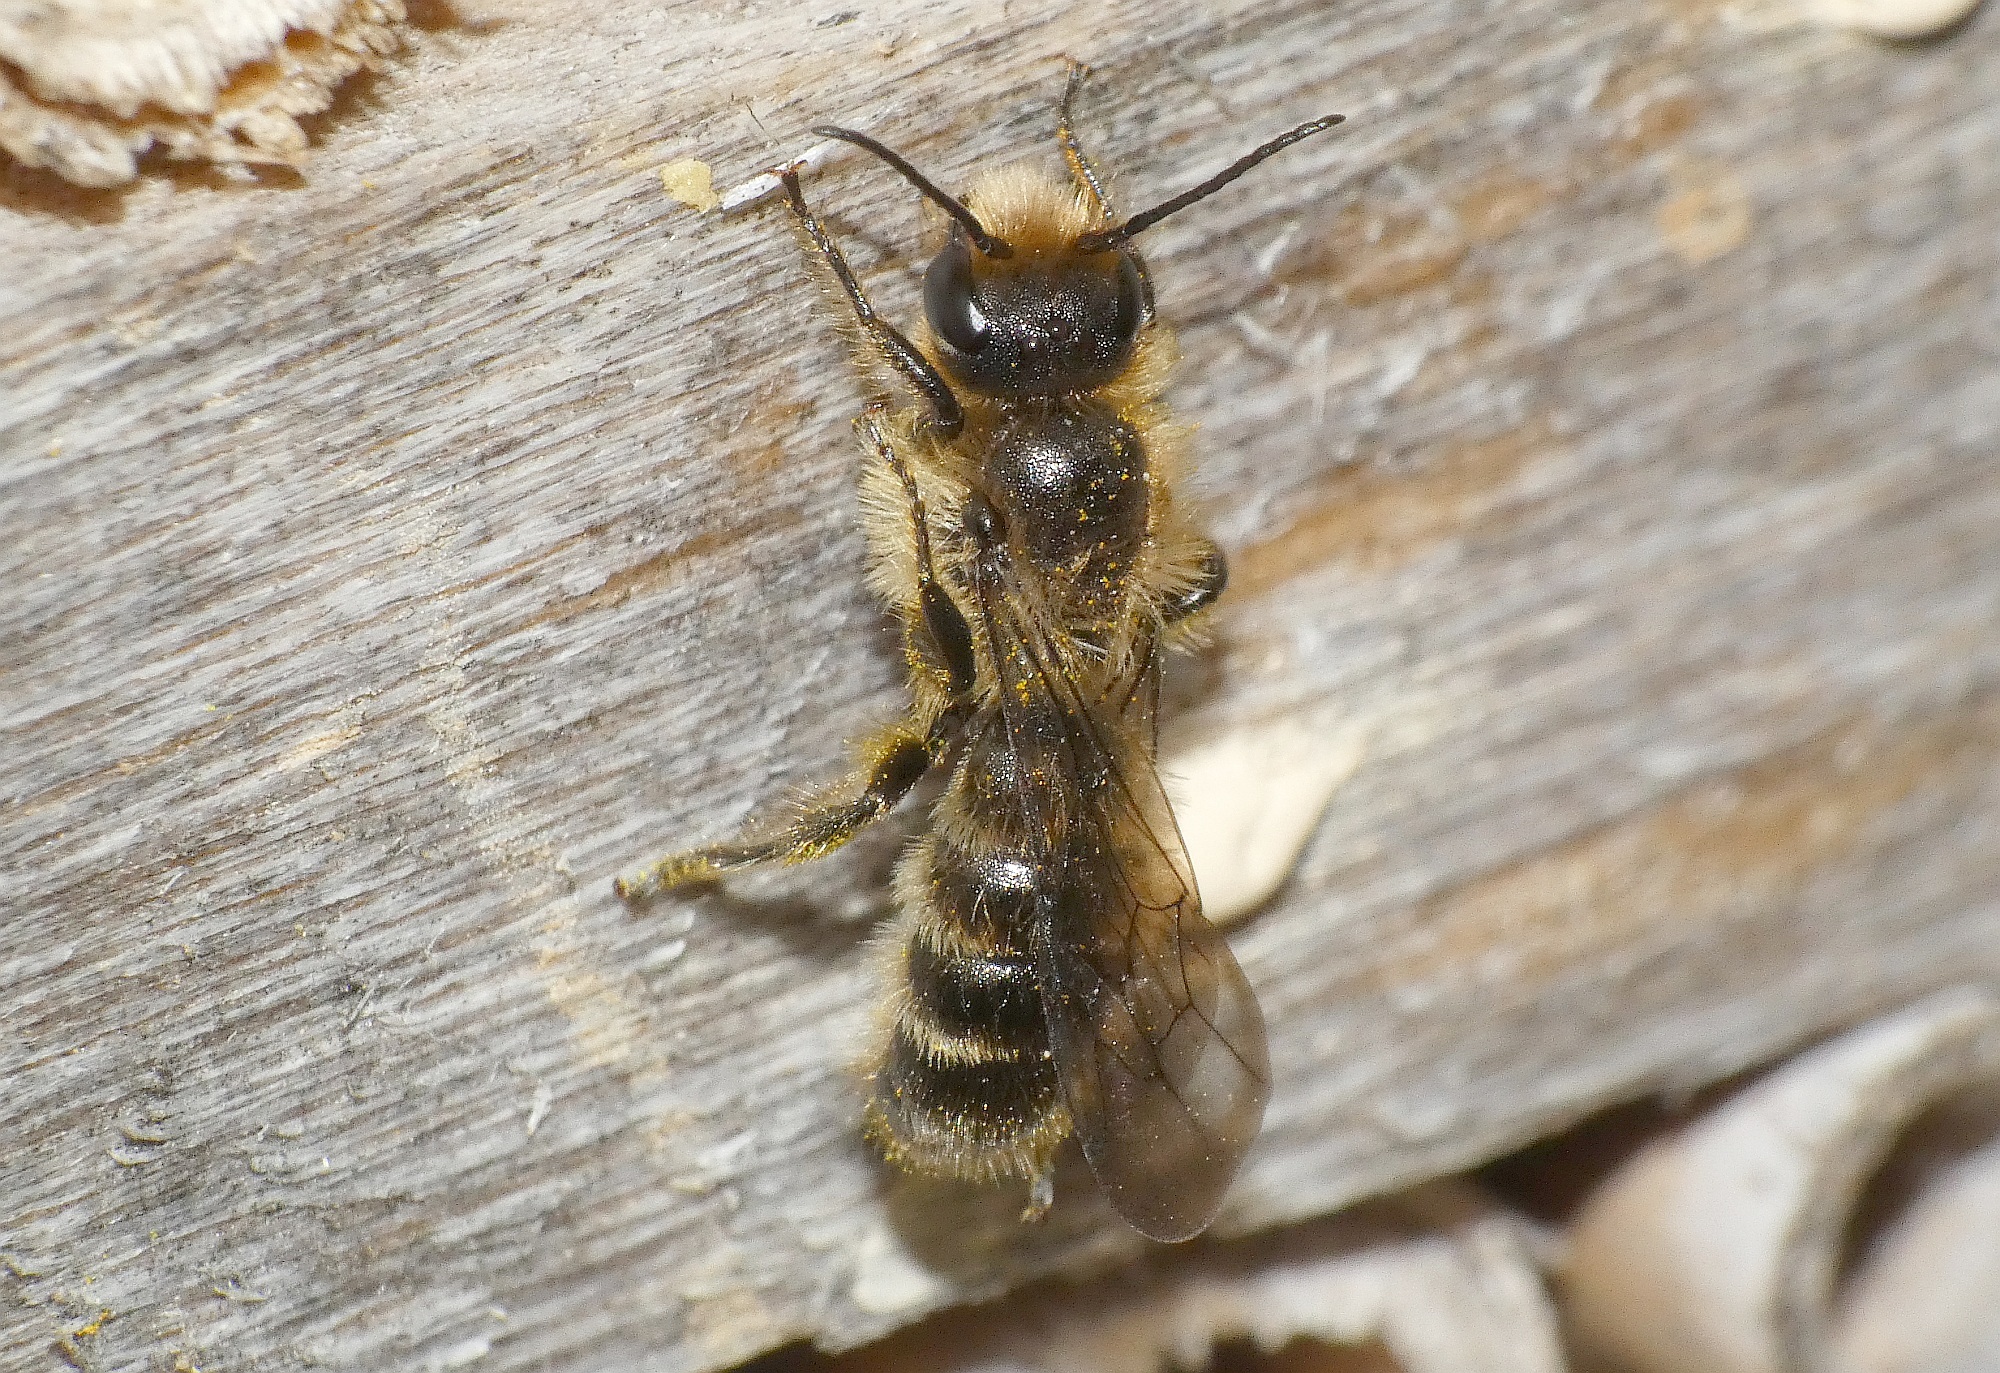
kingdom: Animalia
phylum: Arthropoda
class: Insecta
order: Hymenoptera
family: Megachilidae
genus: Chelostoma
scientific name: Chelostoma florisomne
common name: Sleepy carpenter bee
